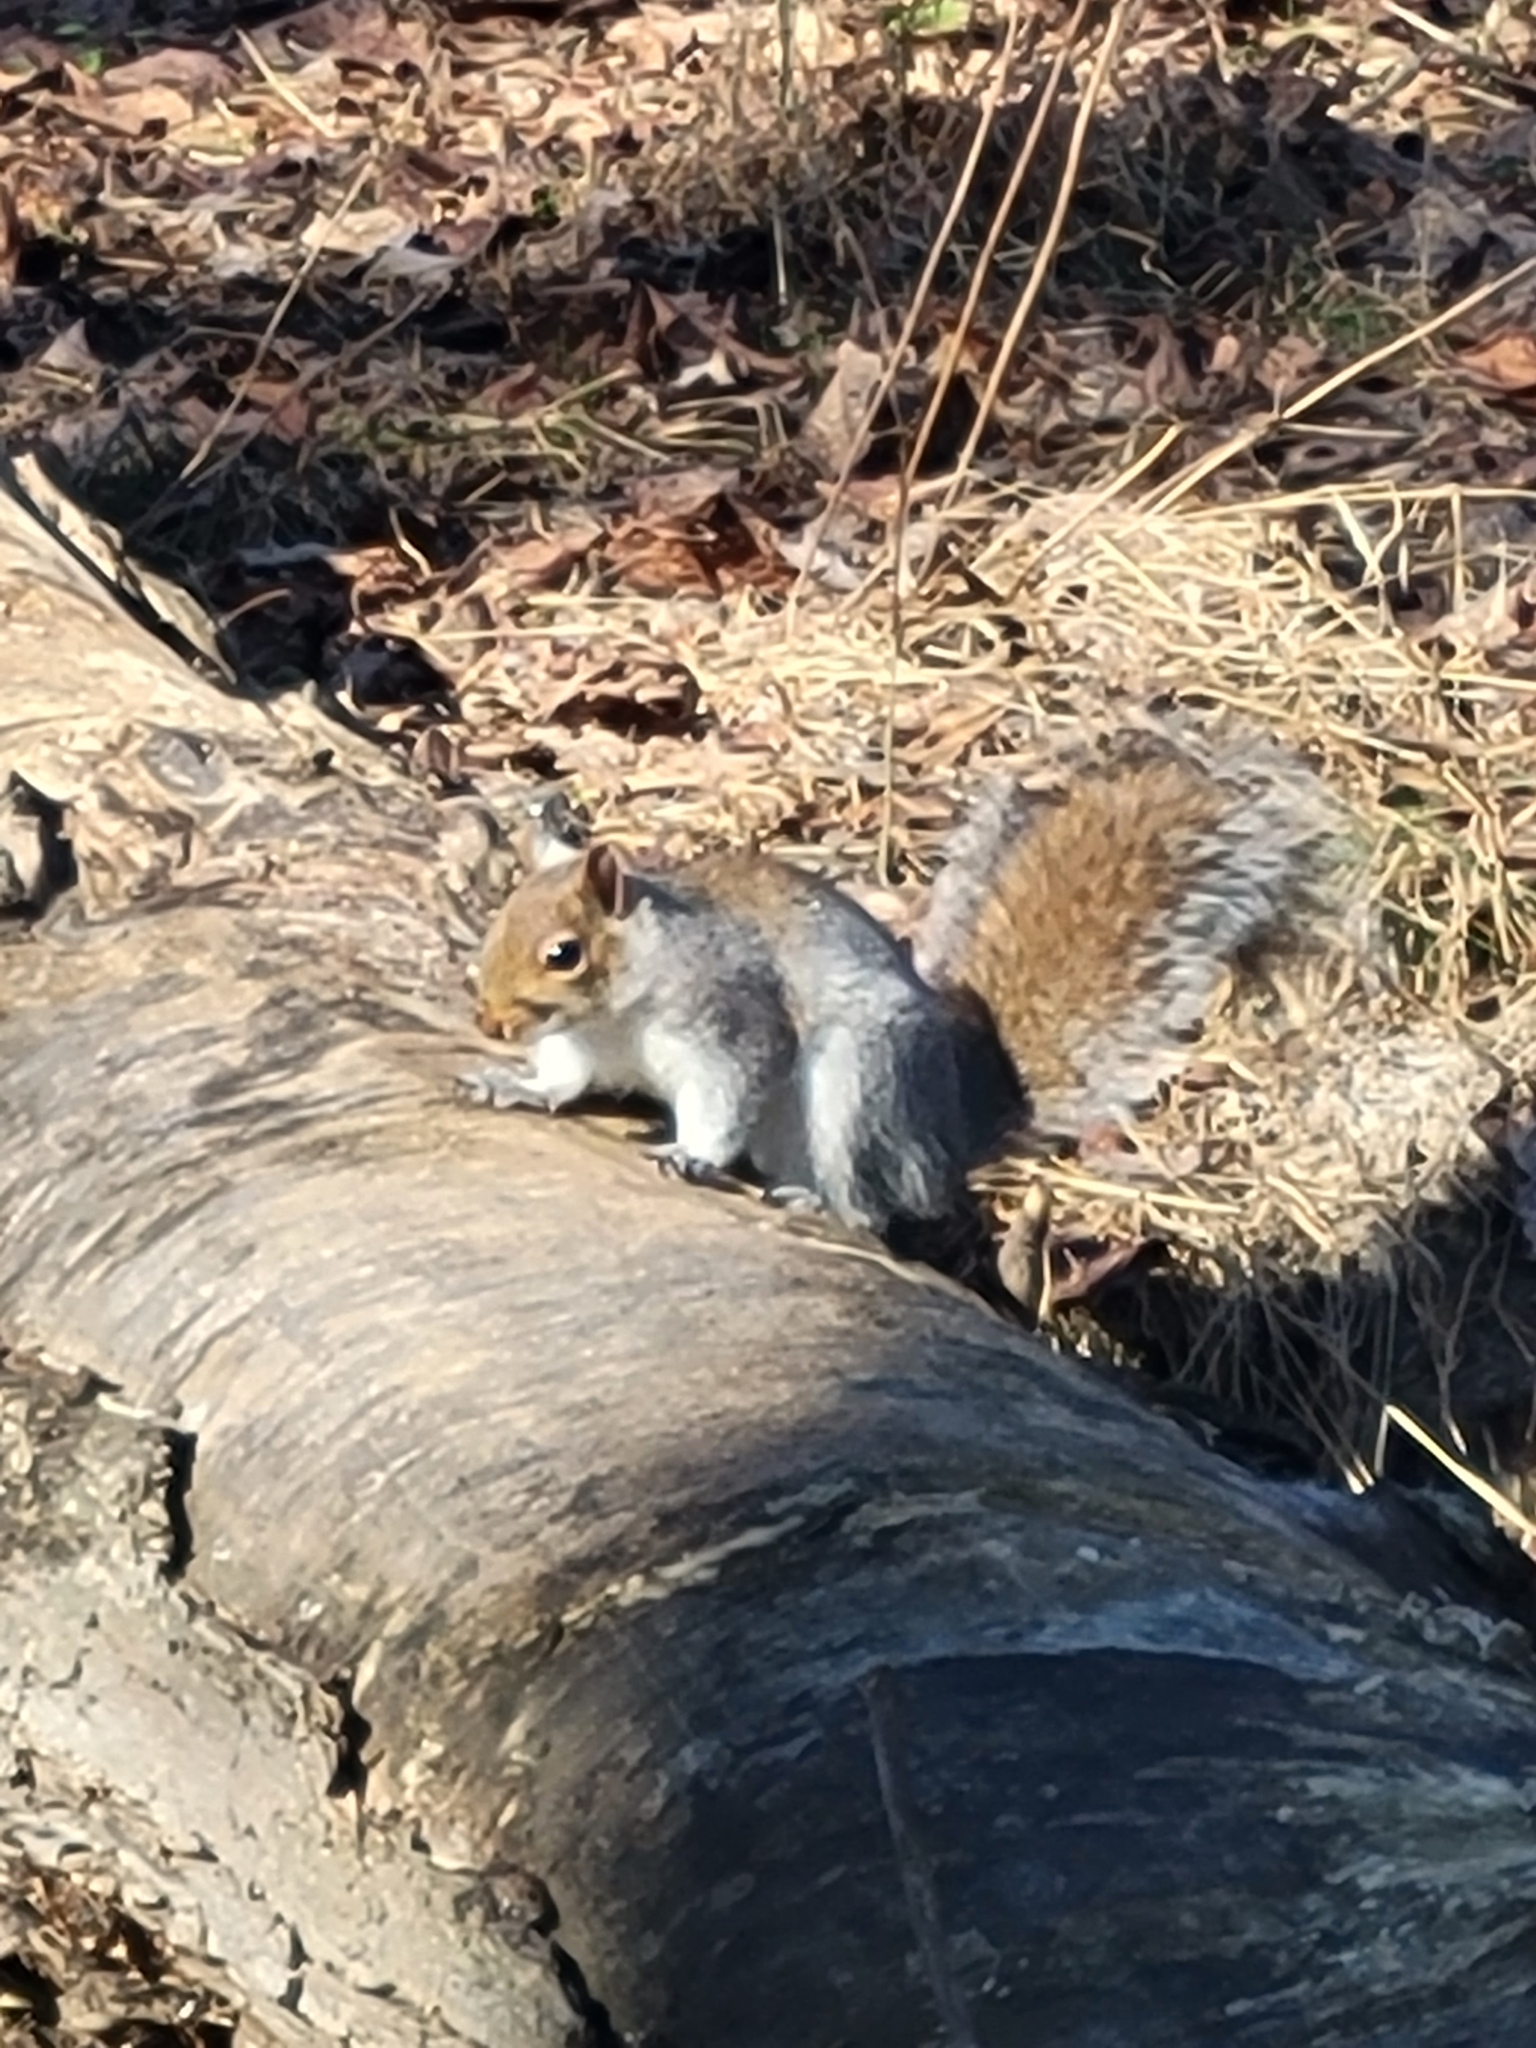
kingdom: Animalia
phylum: Chordata
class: Mammalia
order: Rodentia
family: Sciuridae
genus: Sciurus
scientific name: Sciurus carolinensis
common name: Eastern gray squirrel
